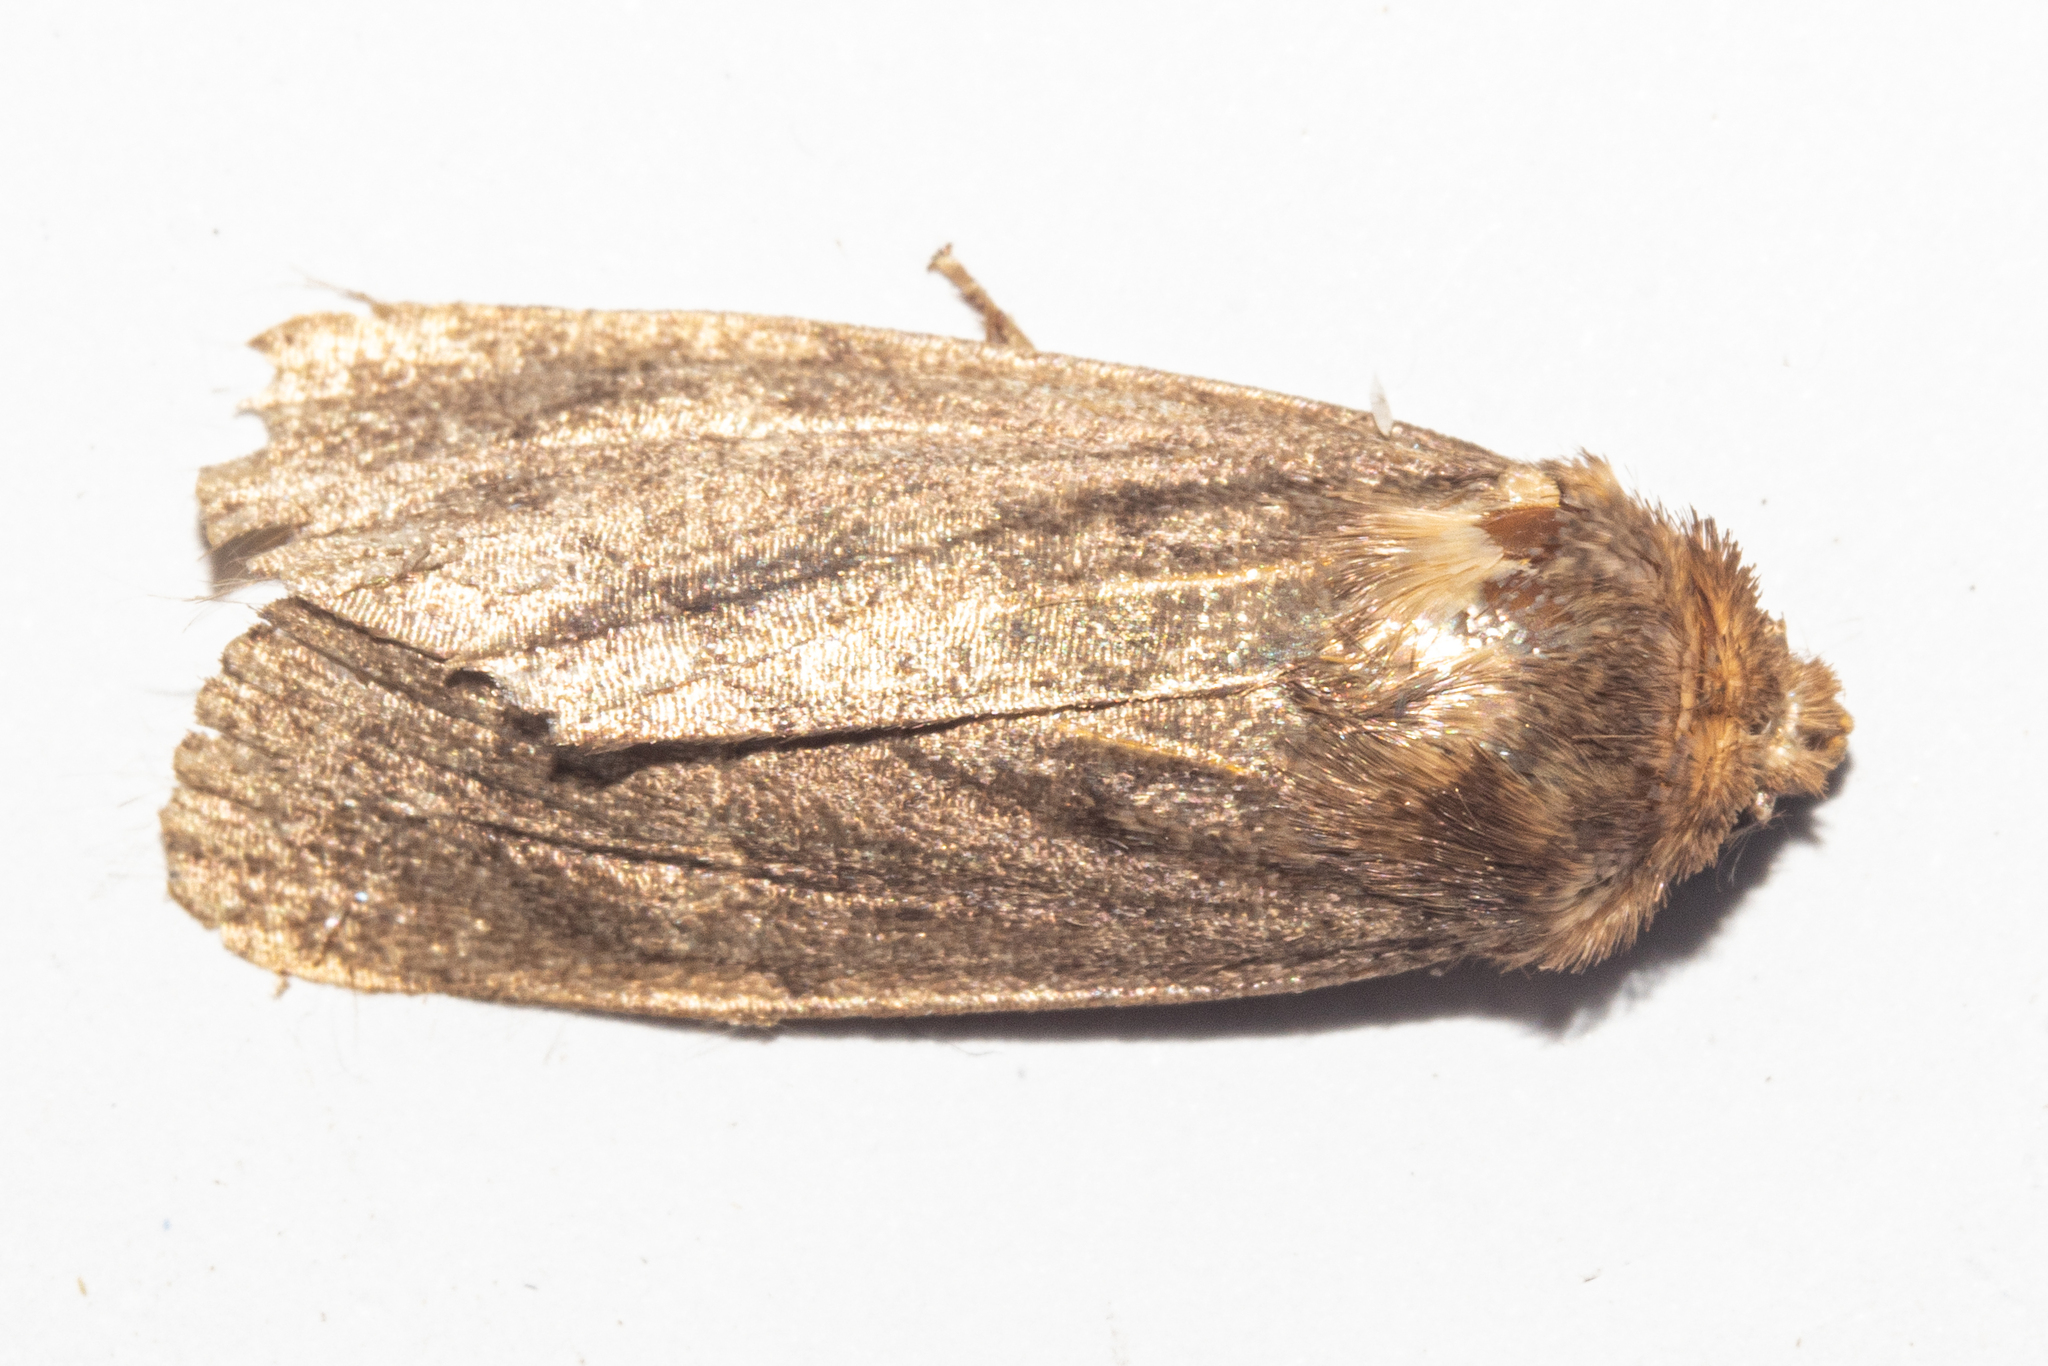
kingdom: Animalia
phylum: Arthropoda
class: Insecta
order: Lepidoptera
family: Noctuidae
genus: Bityla
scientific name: Bityla defigurata
